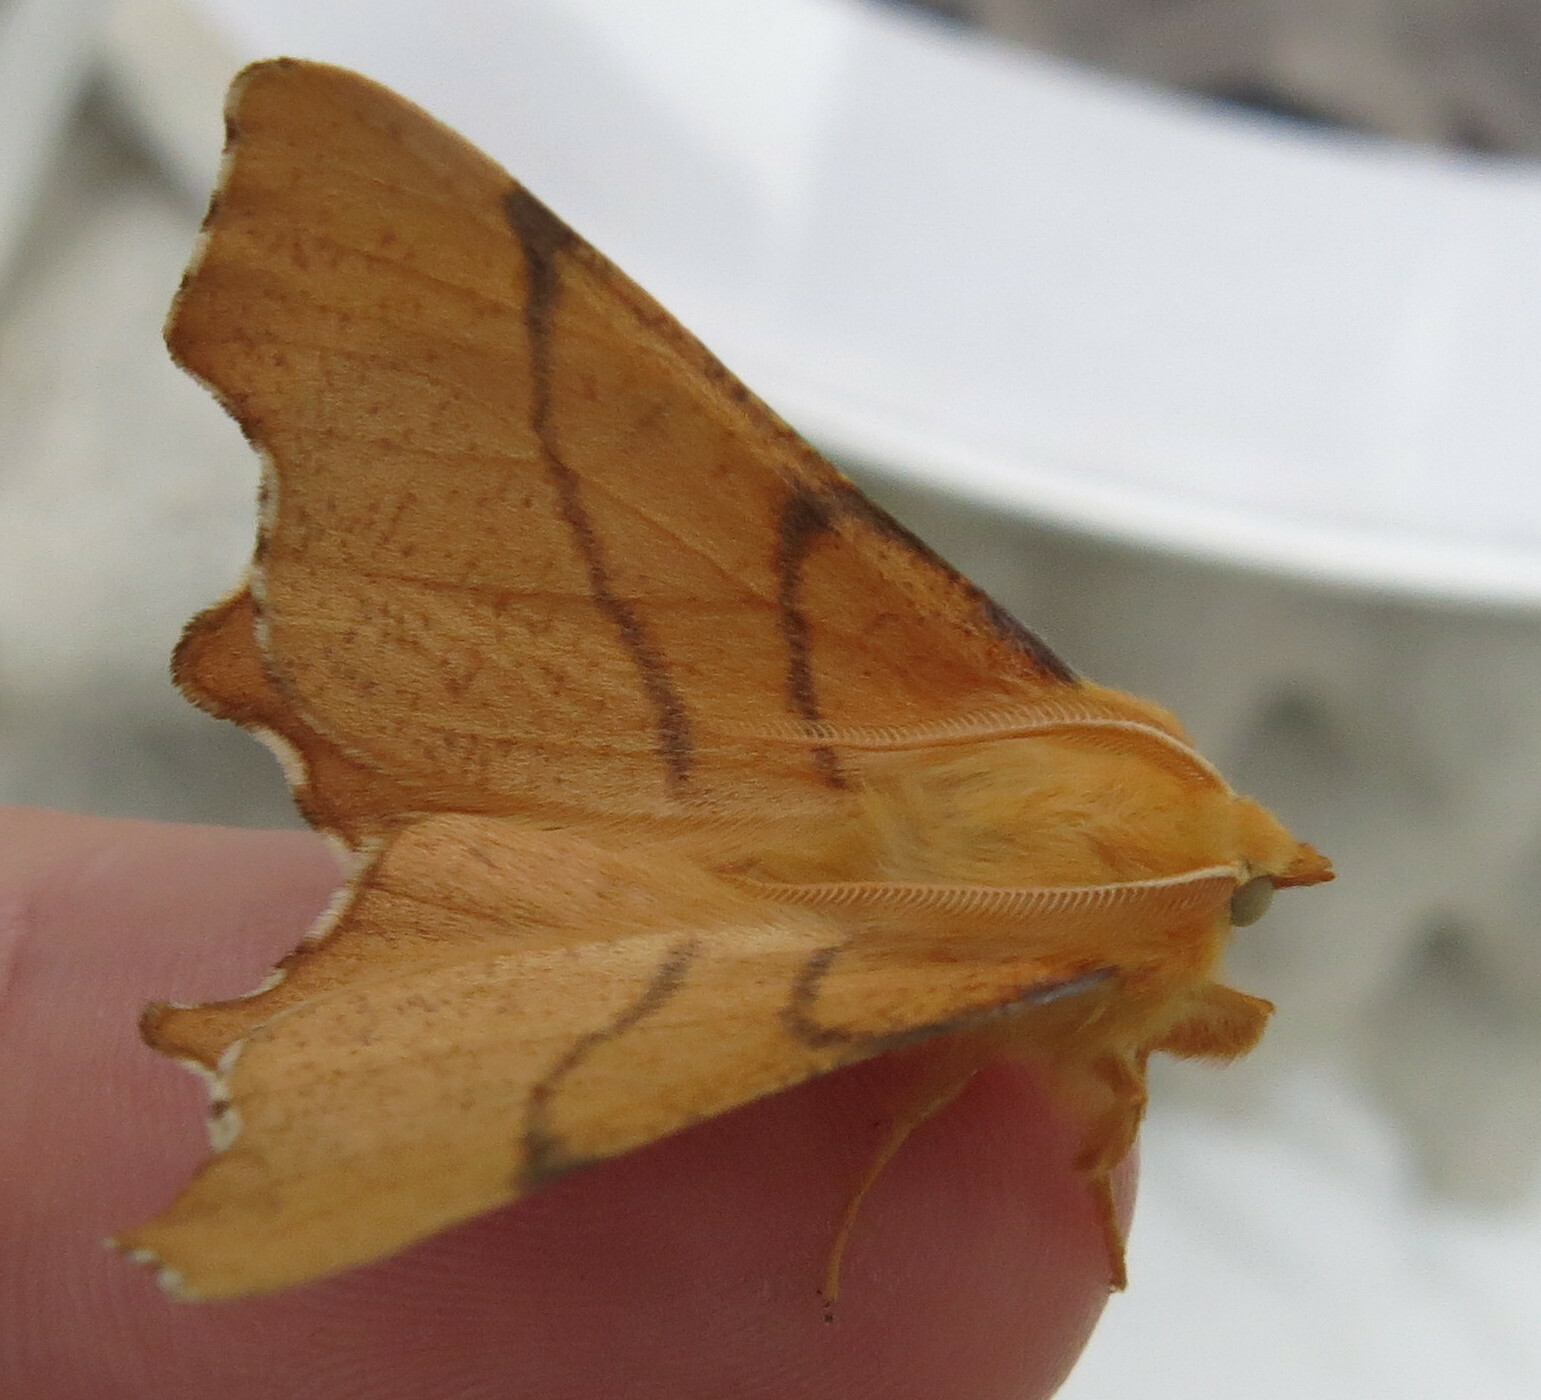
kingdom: Animalia
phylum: Arthropoda
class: Insecta
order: Lepidoptera
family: Geometridae
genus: Ennomos
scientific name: Ennomos erosaria
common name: September thorn
